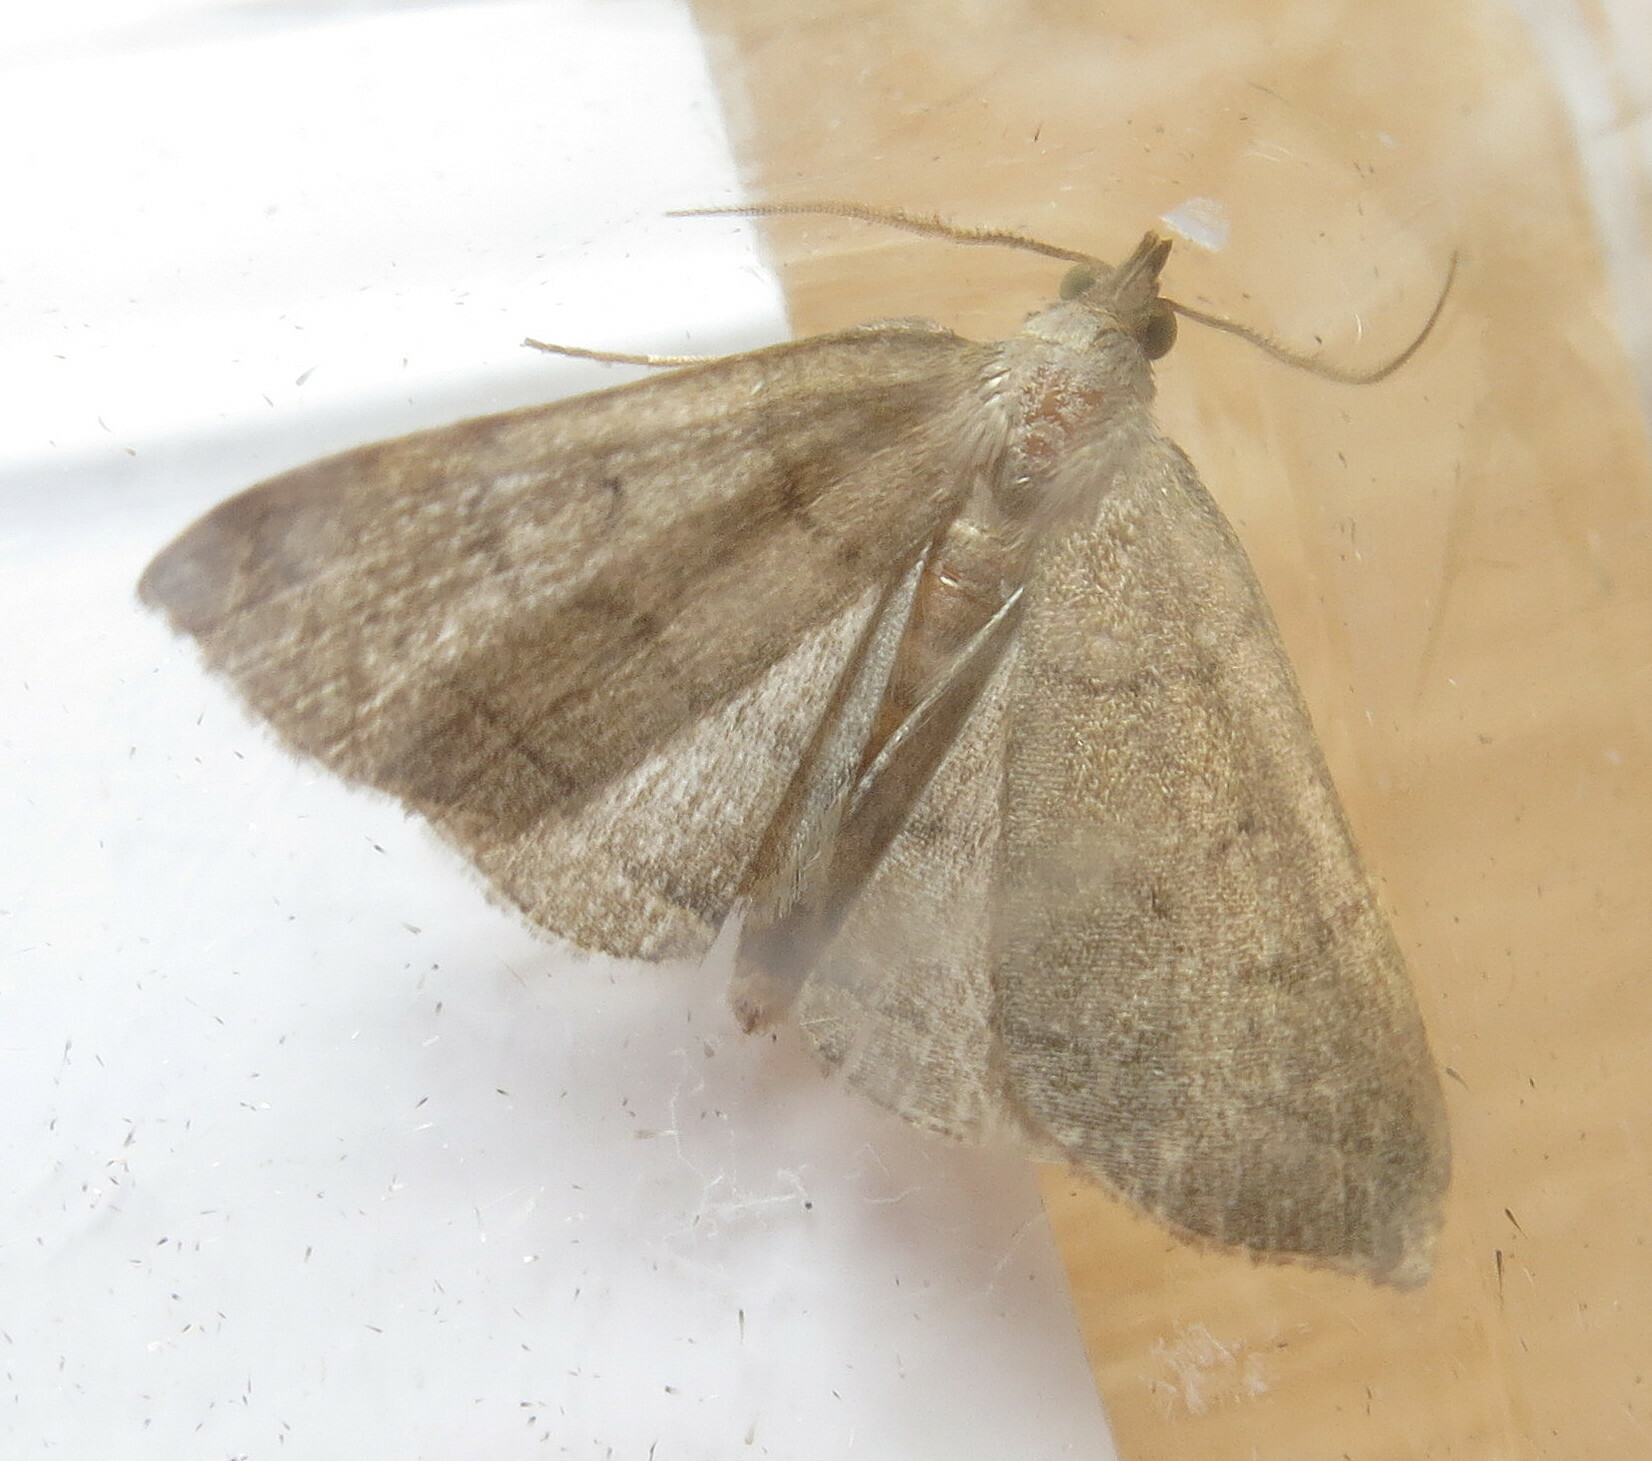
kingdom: Animalia
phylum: Arthropoda
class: Insecta
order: Lepidoptera
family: Erebidae
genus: Herminia
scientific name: Herminia tarsipennalis
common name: Fan-foot
